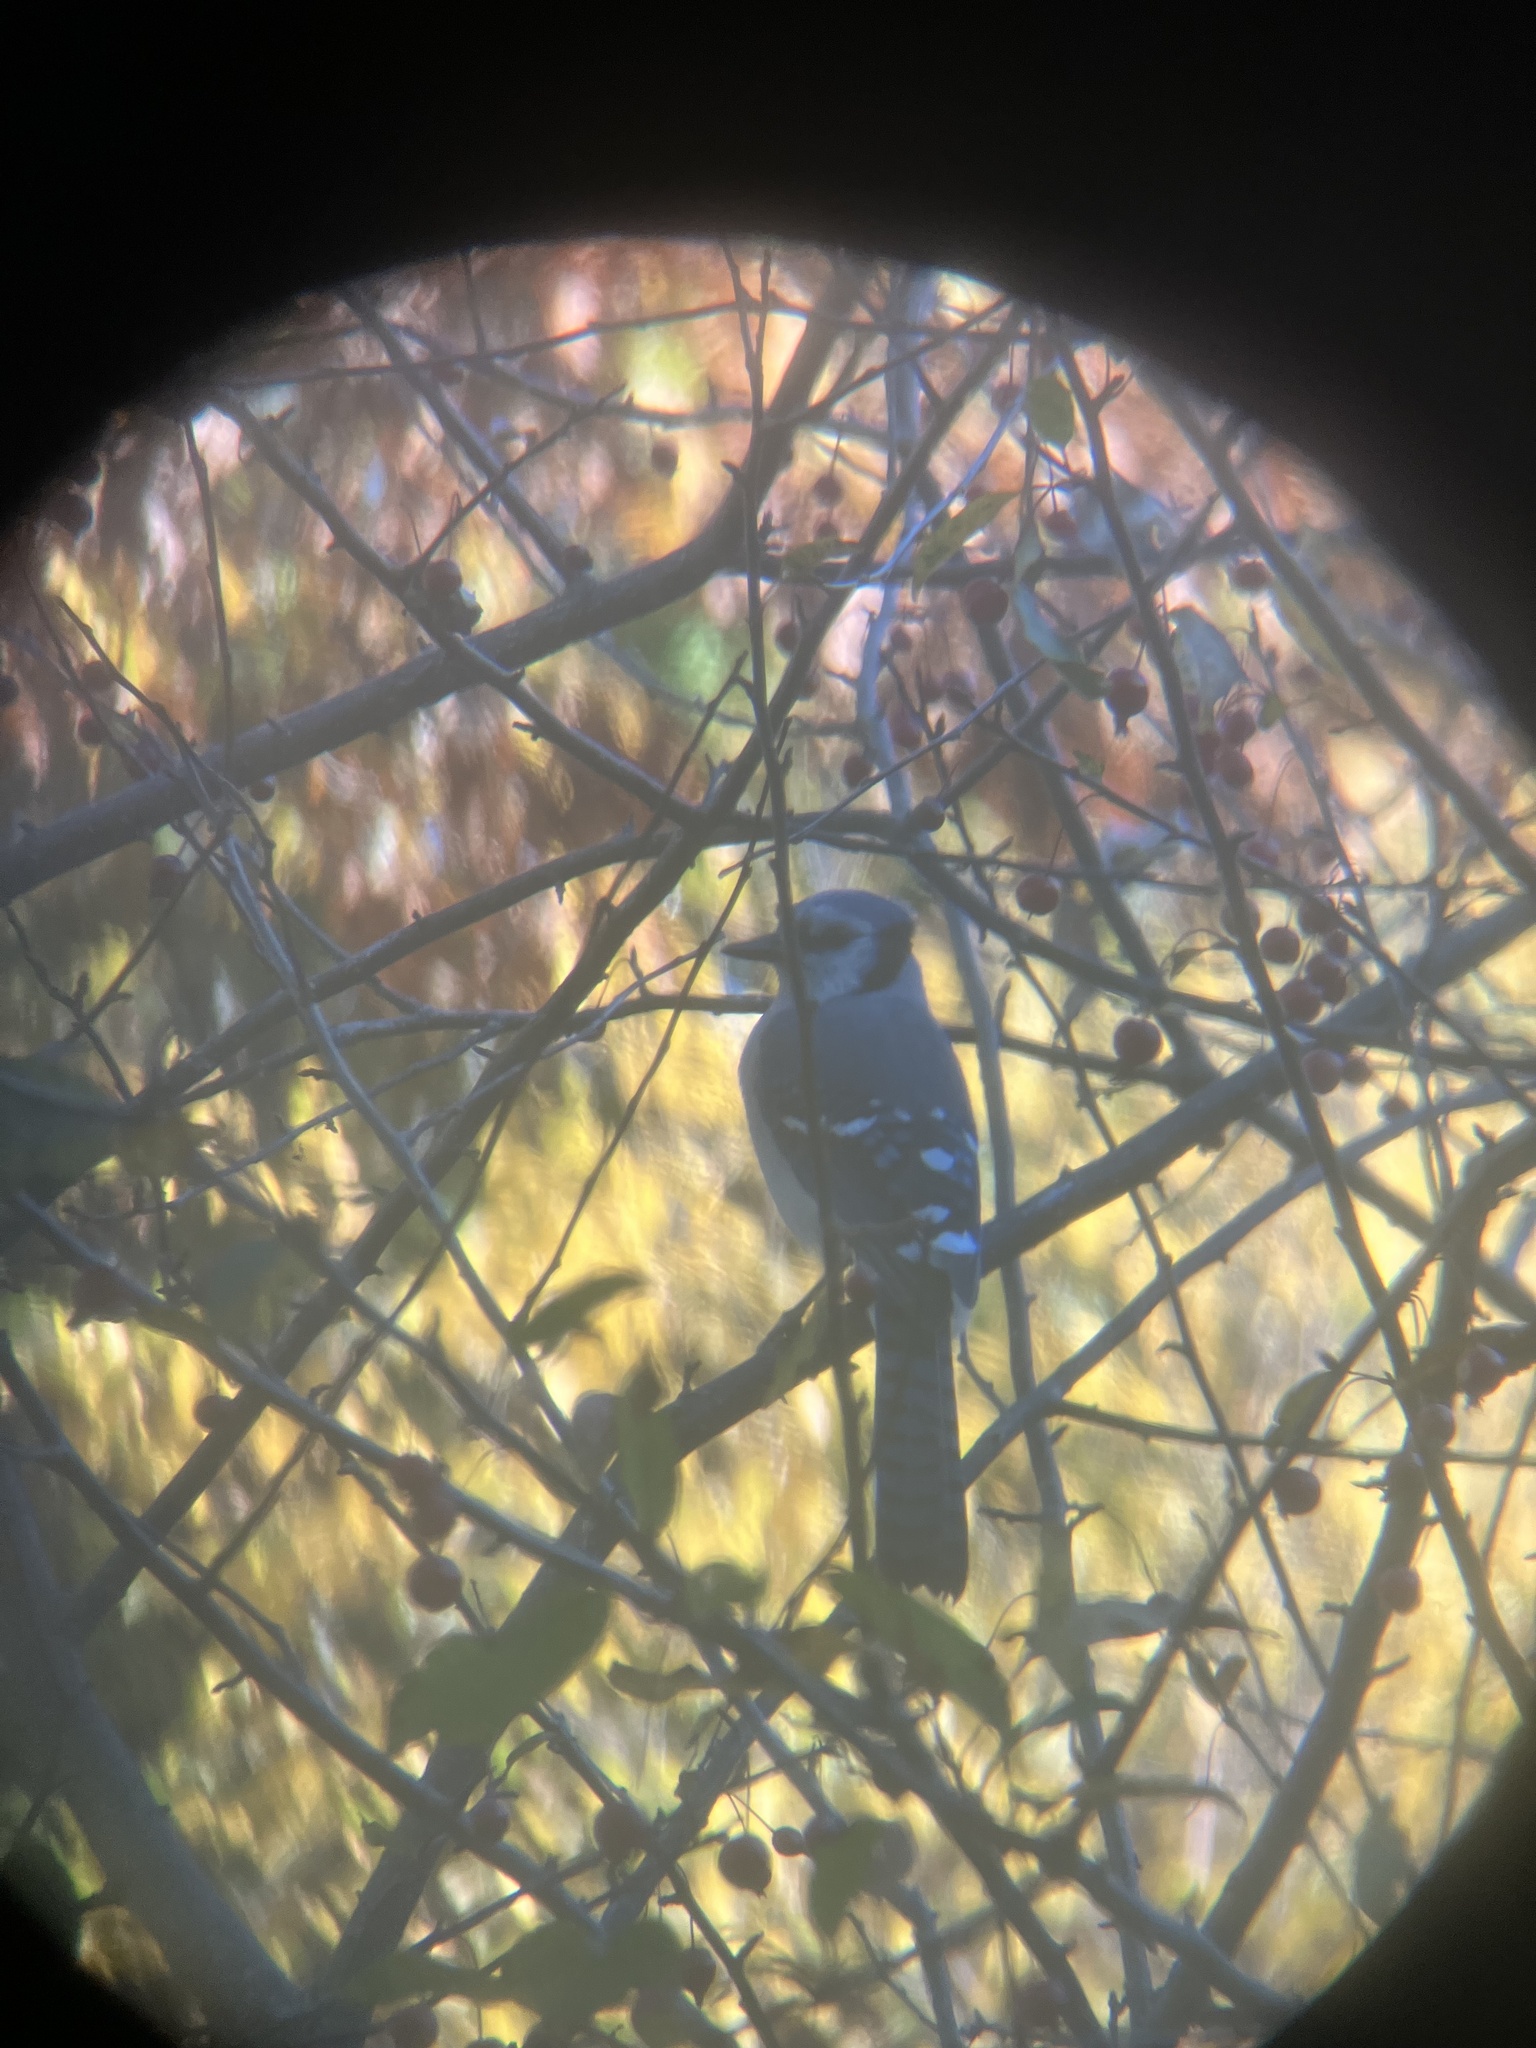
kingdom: Animalia
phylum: Chordata
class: Aves
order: Passeriformes
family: Corvidae
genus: Cyanocitta
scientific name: Cyanocitta cristata
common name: Blue jay
